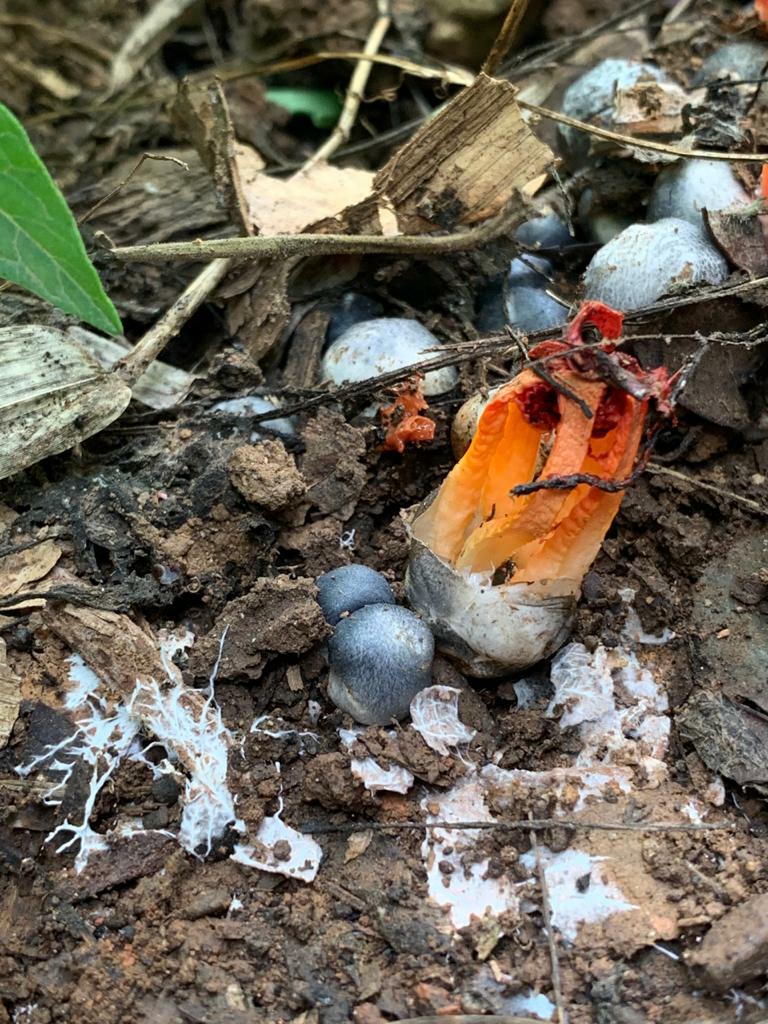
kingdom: Fungi
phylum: Basidiomycota
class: Agaricomycetes
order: Phallales
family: Phallaceae
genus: Laternea
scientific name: Laternea triscapa
